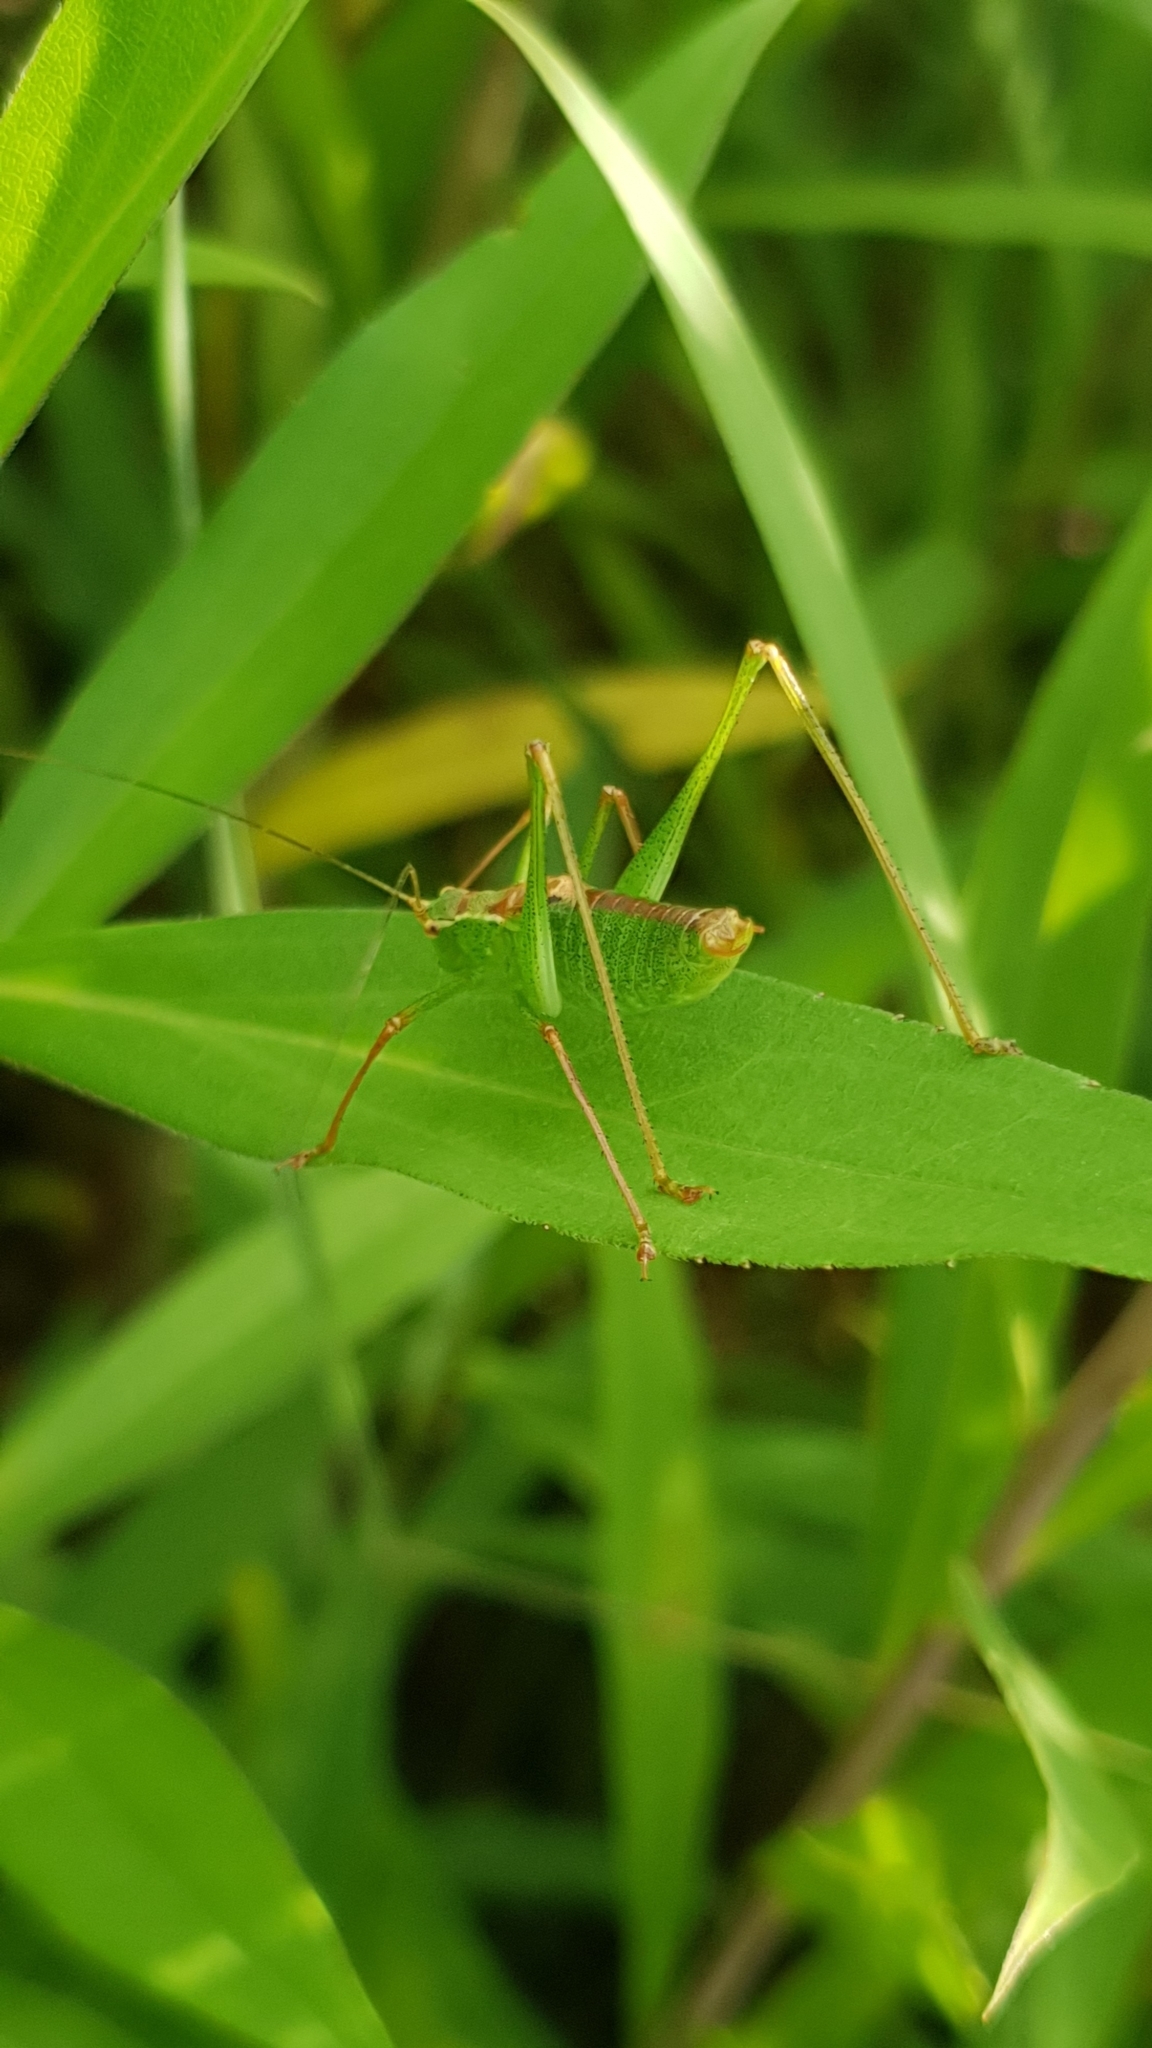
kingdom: Animalia
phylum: Arthropoda
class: Insecta
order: Orthoptera
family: Tettigoniidae
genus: Leptophyes
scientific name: Leptophyes punctatissima
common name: Speckled bush-cricket
